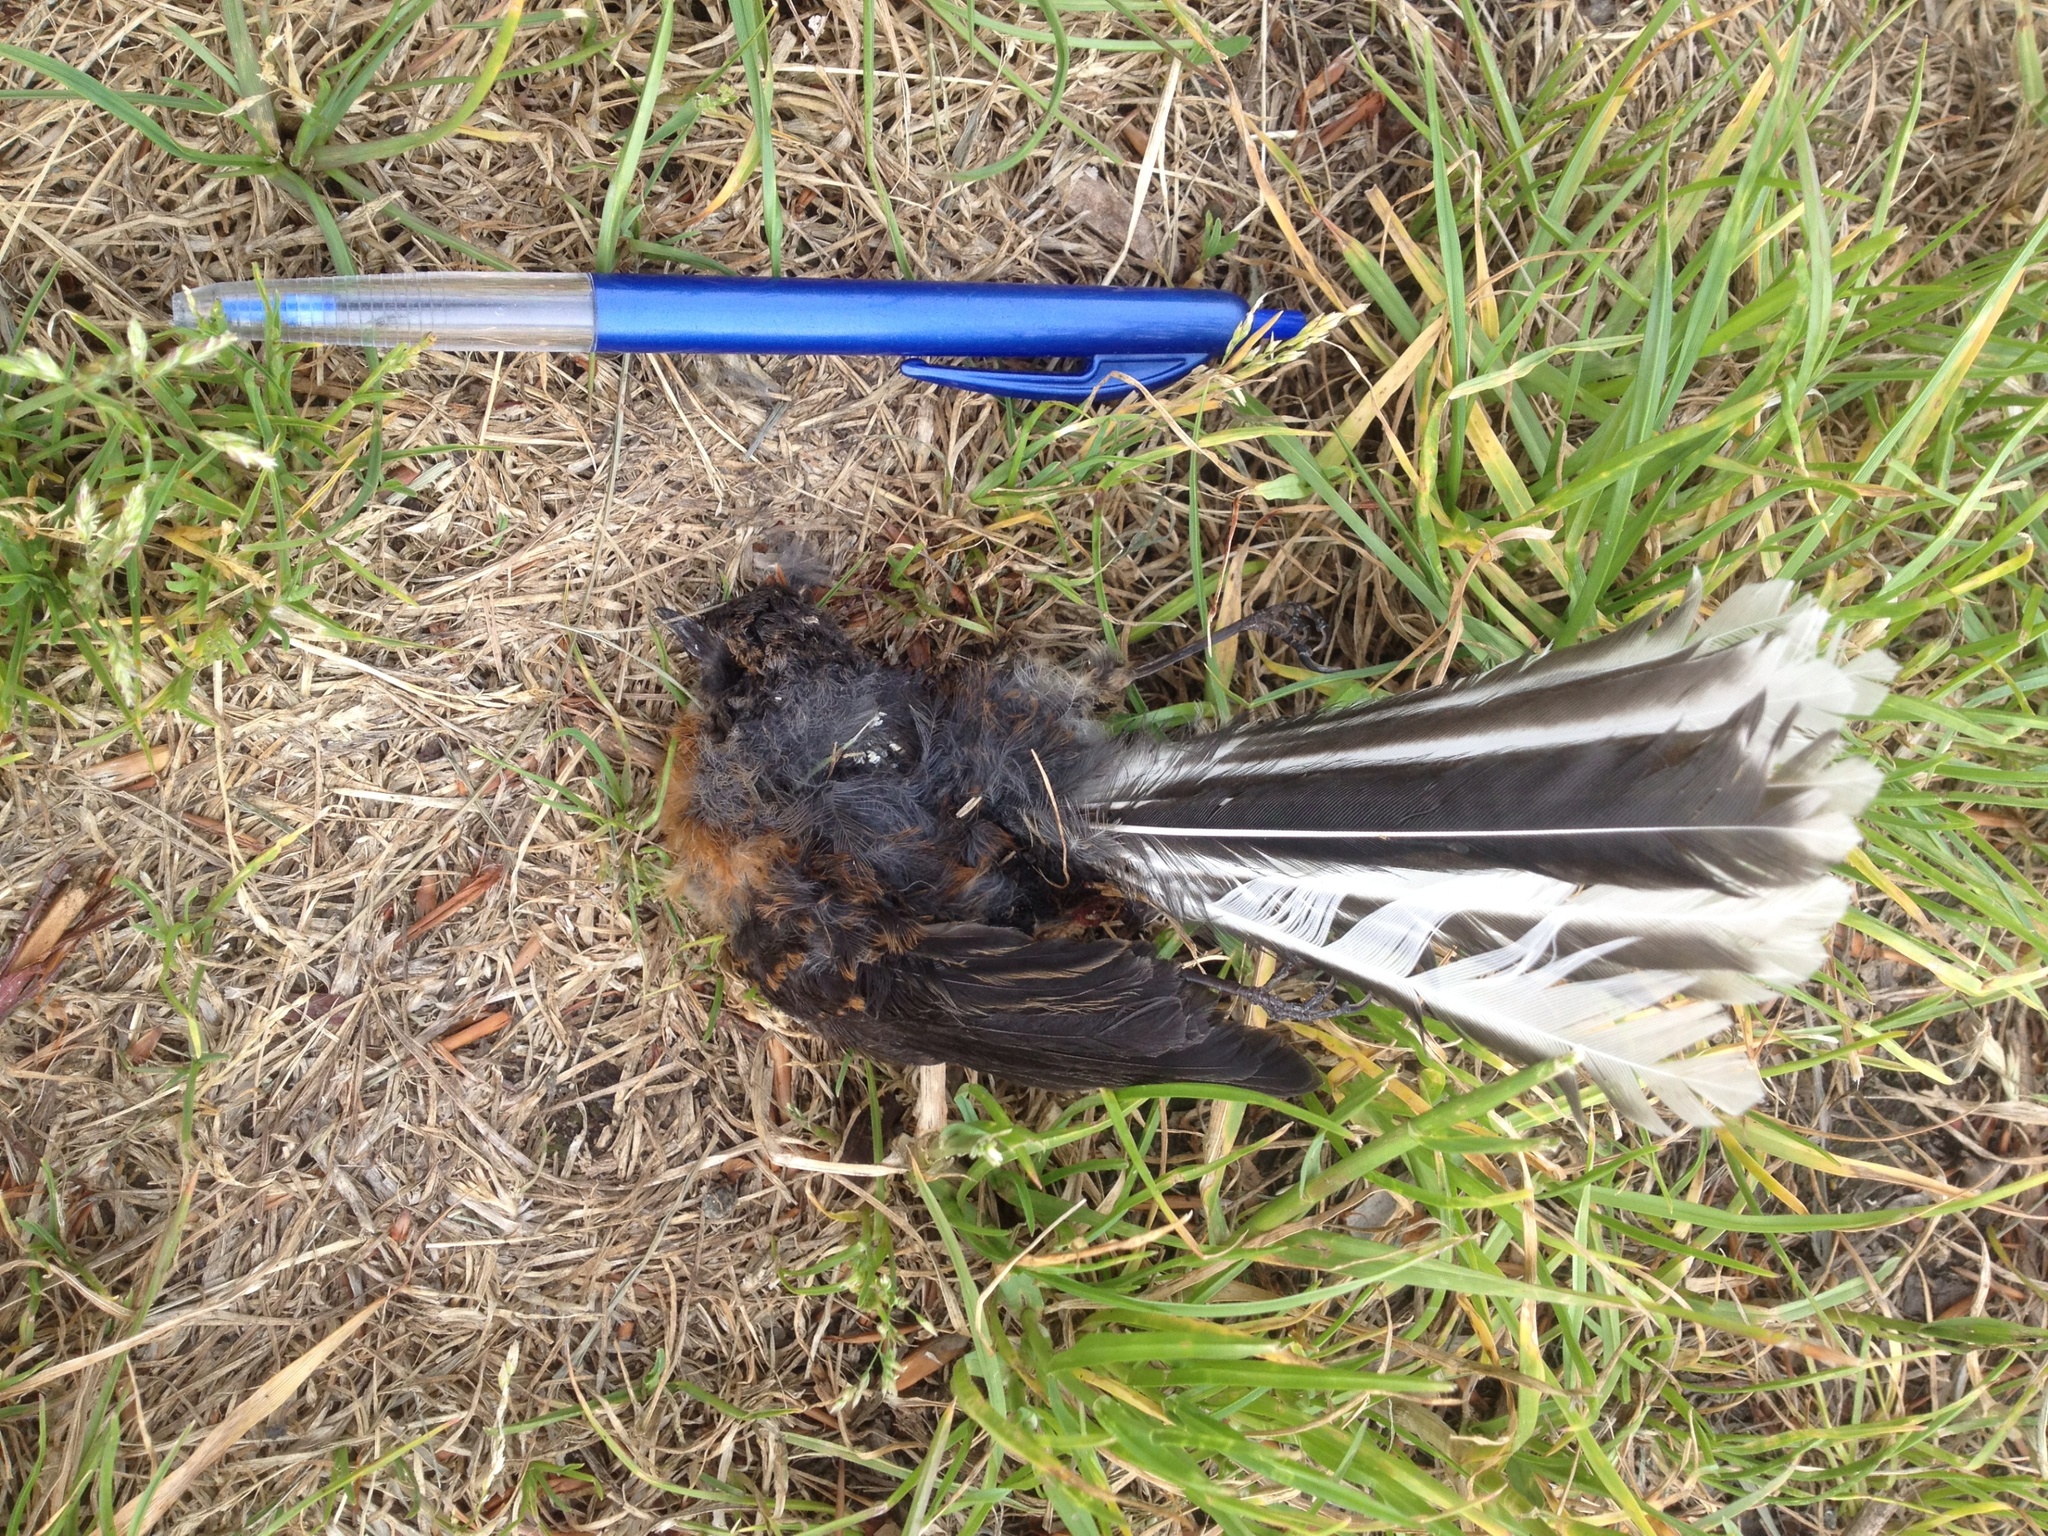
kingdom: Animalia
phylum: Chordata
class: Aves
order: Passeriformes
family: Rhipiduridae
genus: Rhipidura
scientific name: Rhipidura fuliginosa
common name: New zealand fantail
